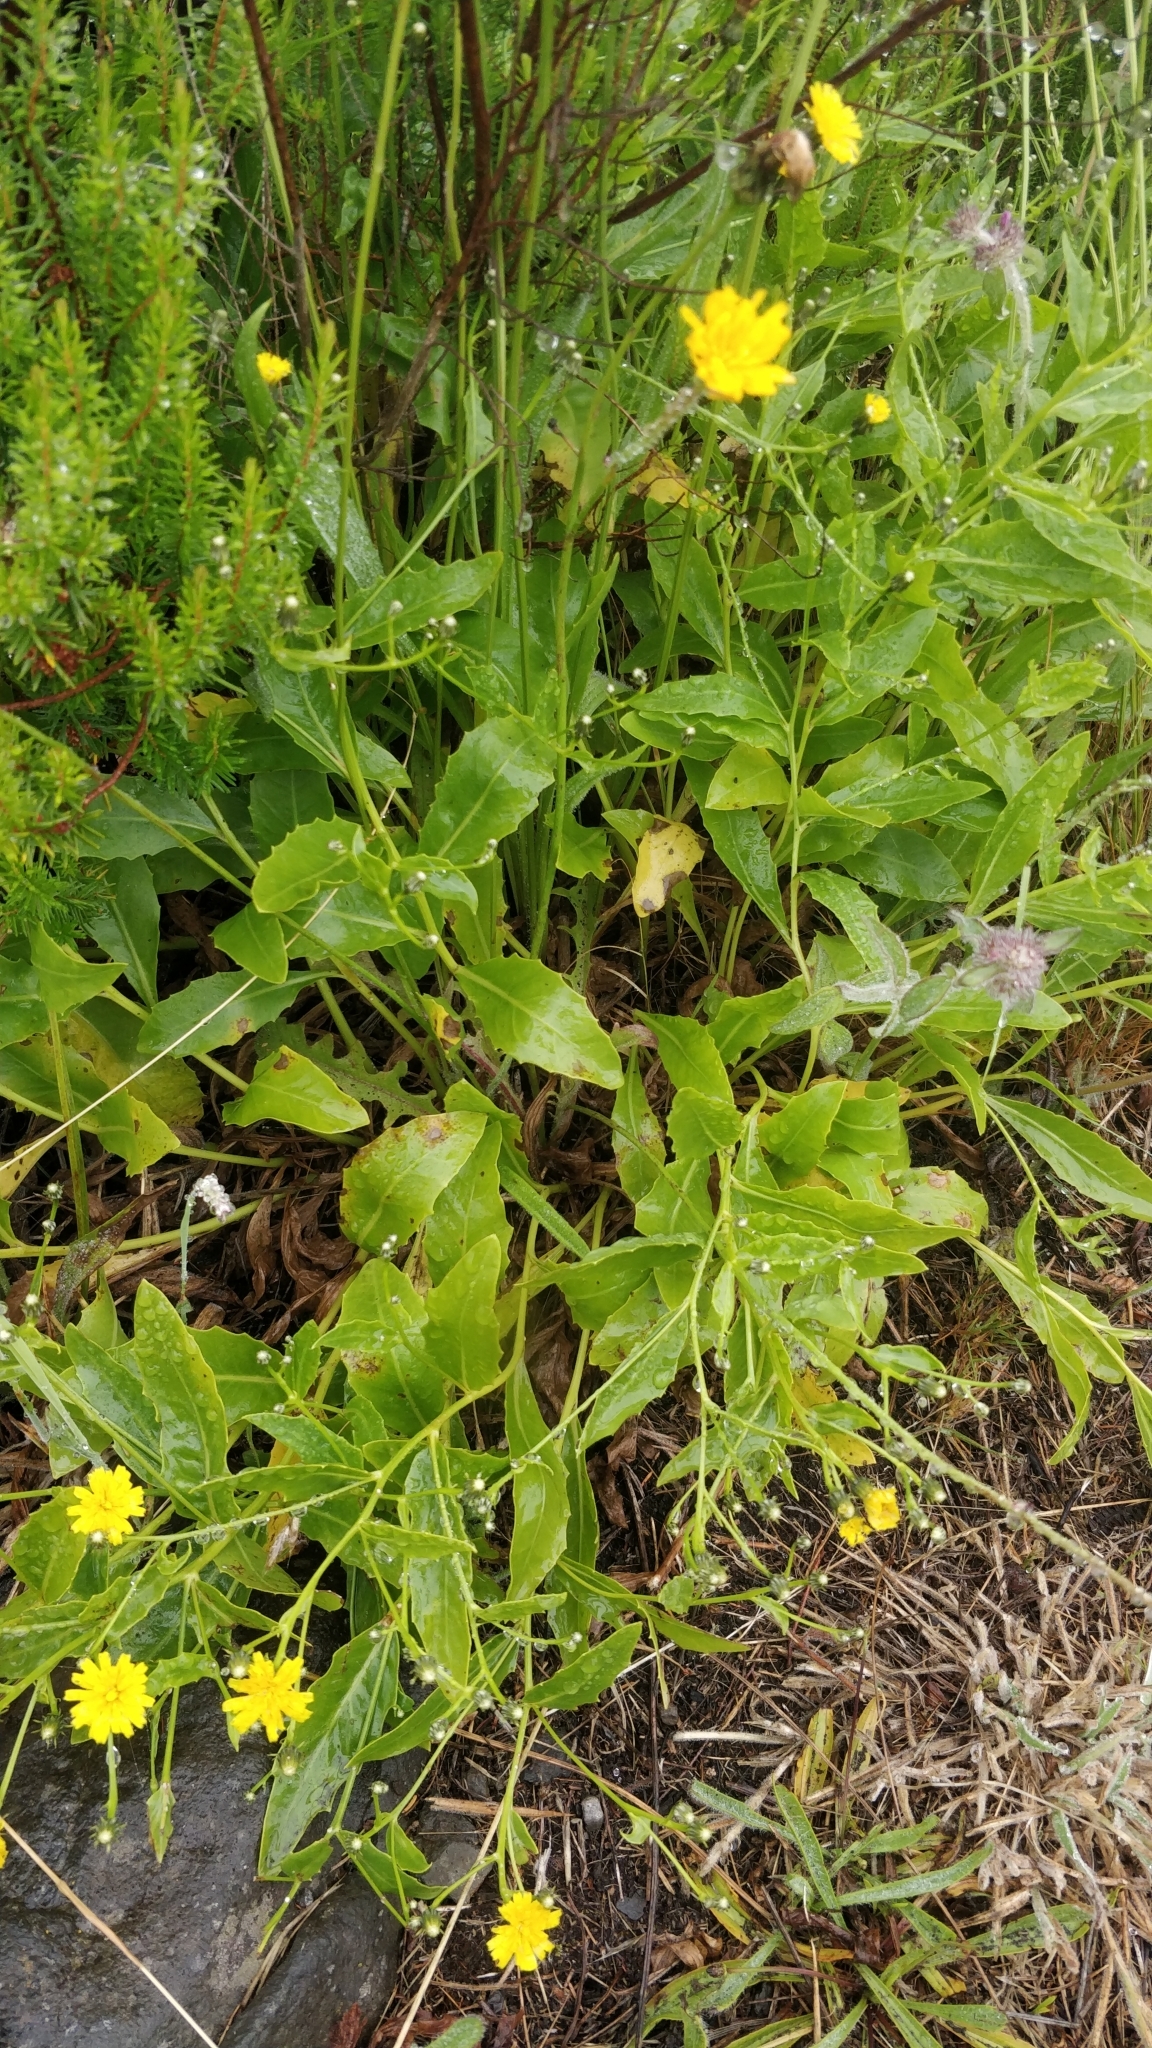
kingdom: Plantae
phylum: Tracheophyta
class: Magnoliopsida
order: Asterales
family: Asteraceae
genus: Tolpis
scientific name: Tolpis macrorhiza
